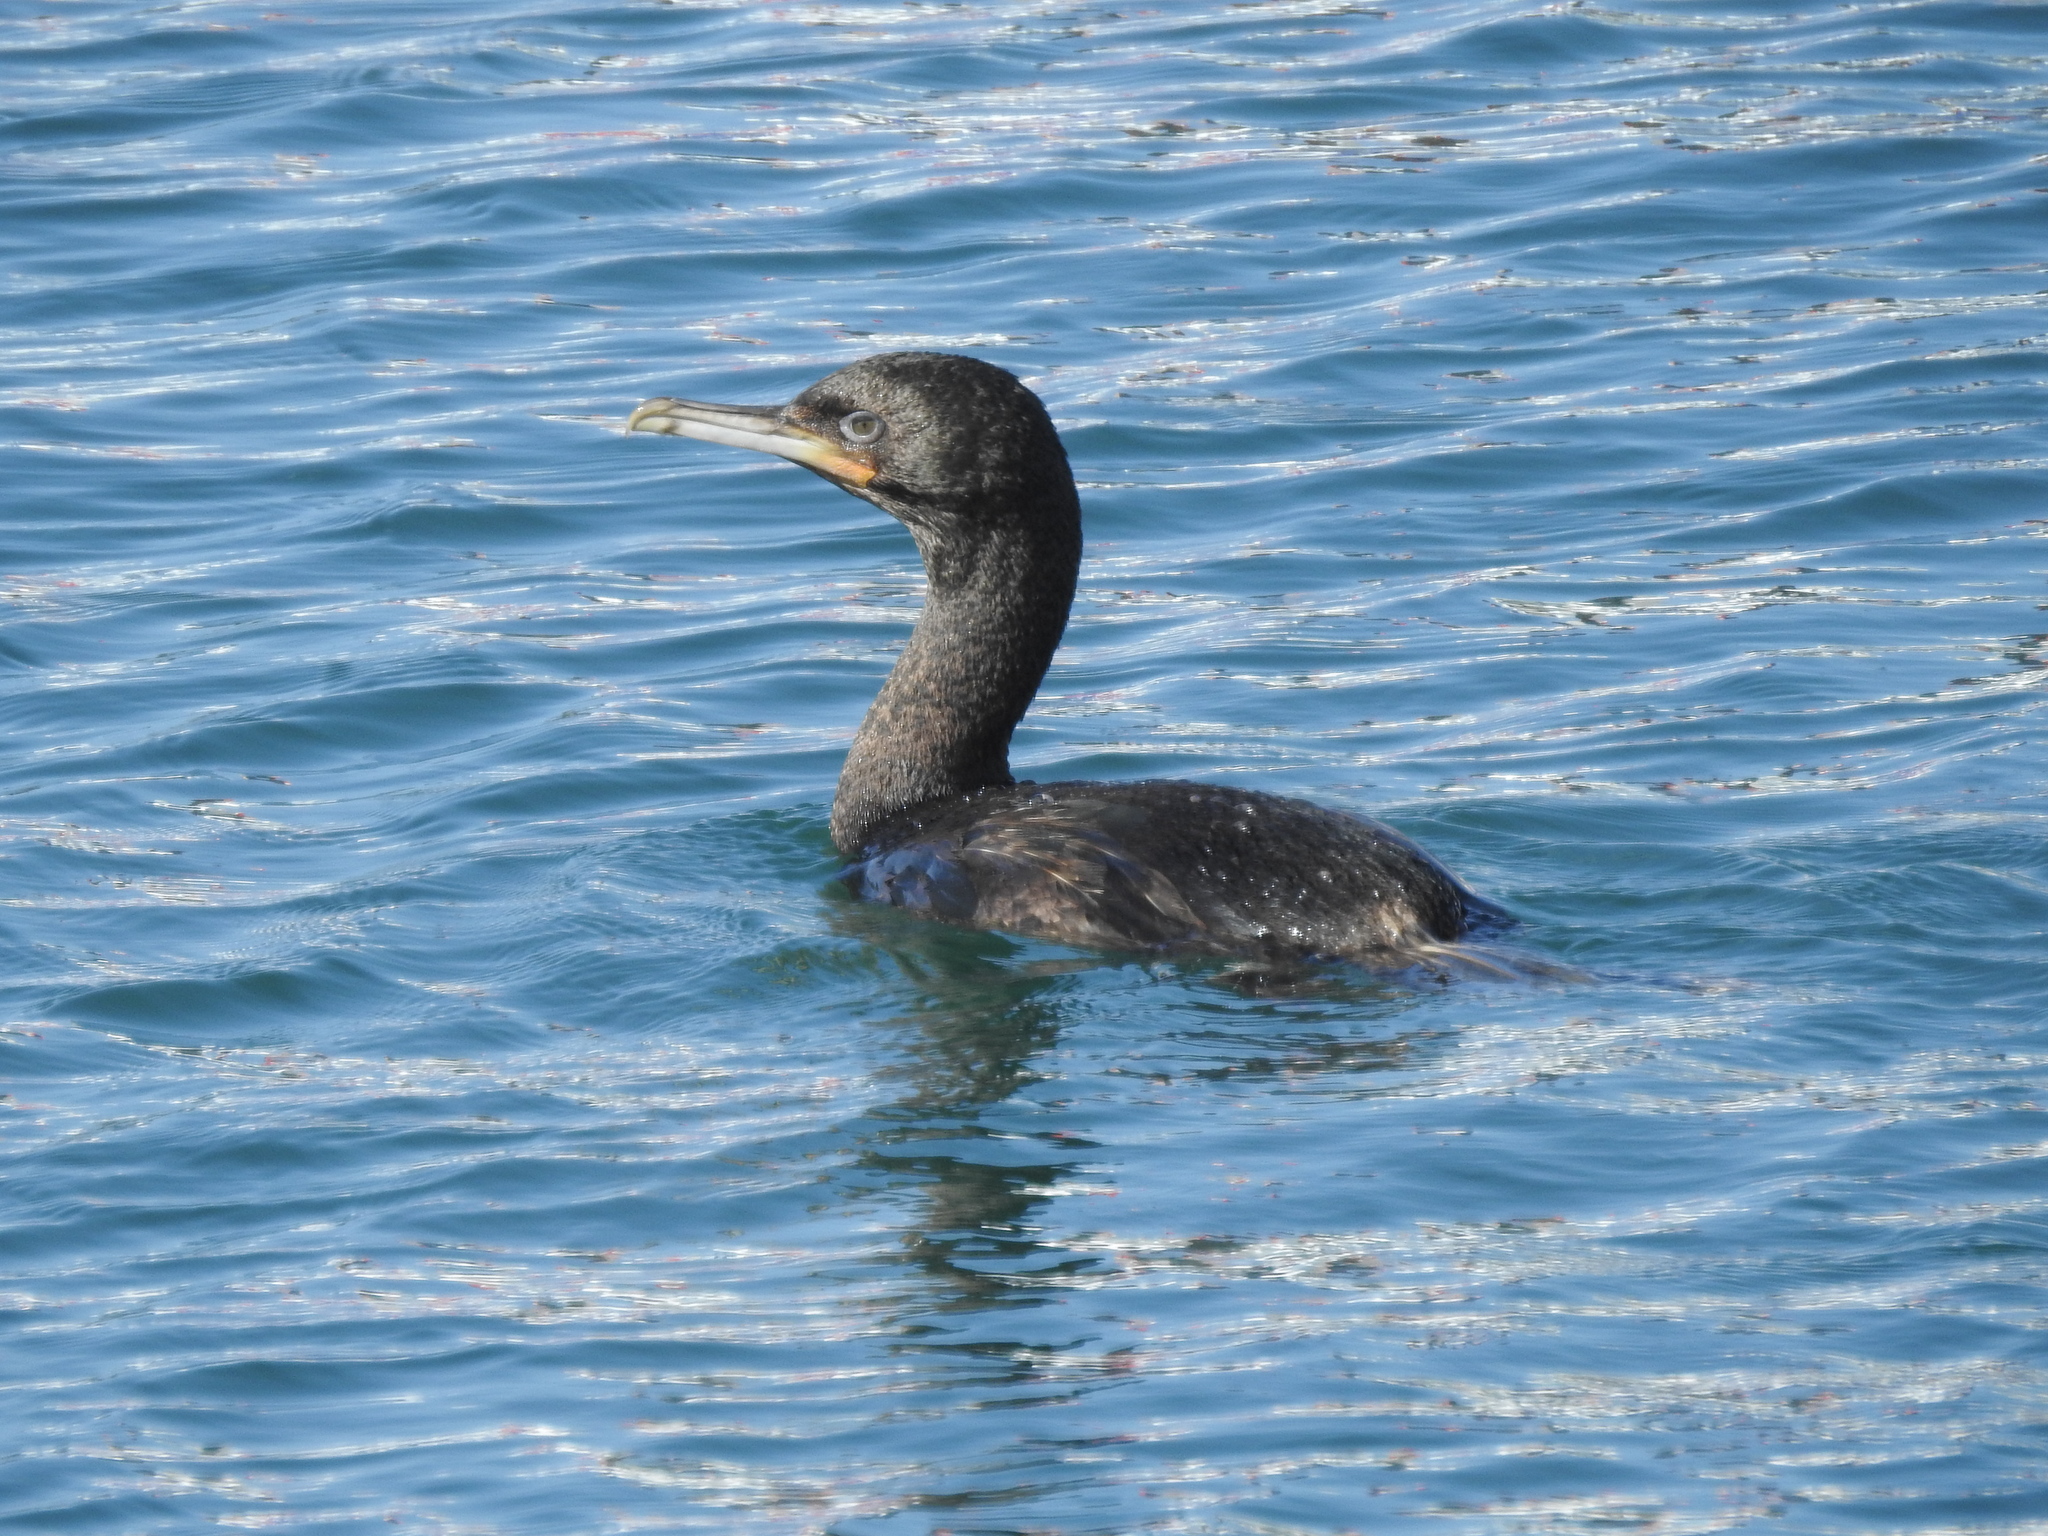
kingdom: Animalia
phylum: Chordata
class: Aves
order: Suliformes
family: Phalacrocoracidae
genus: Leucocarbo
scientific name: Leucocarbo chalconotus
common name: Stewart shag
